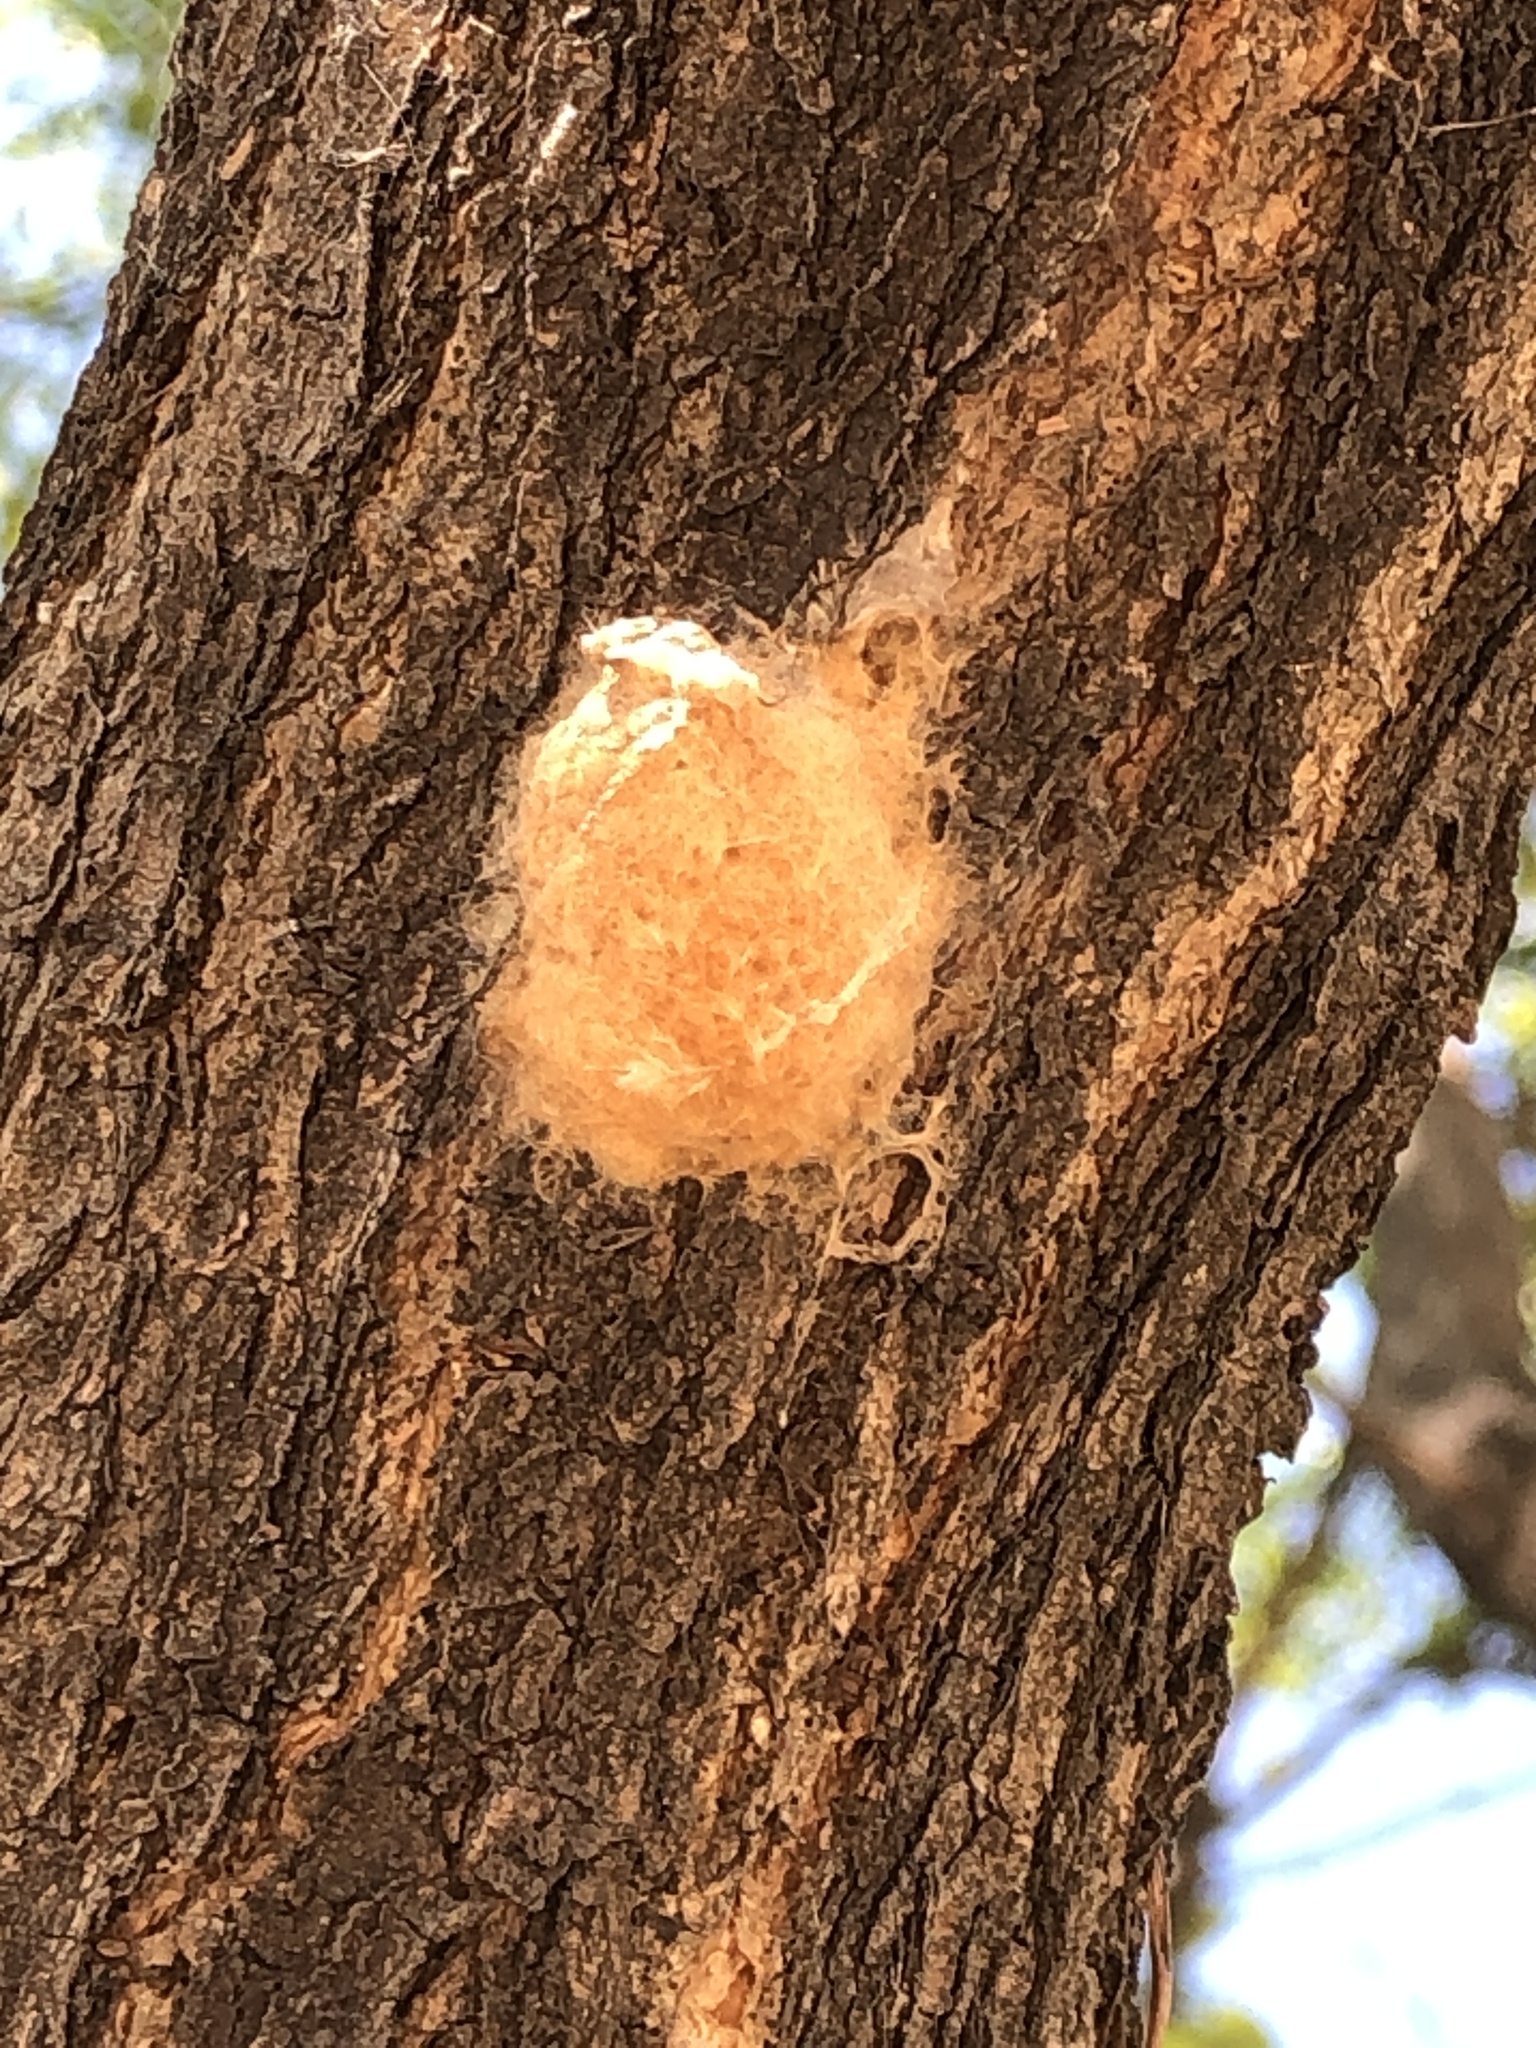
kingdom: Animalia
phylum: Arthropoda
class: Insecta
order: Lepidoptera
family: Erebidae
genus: Lymantria
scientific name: Lymantria dispar
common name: Gypsy moth
